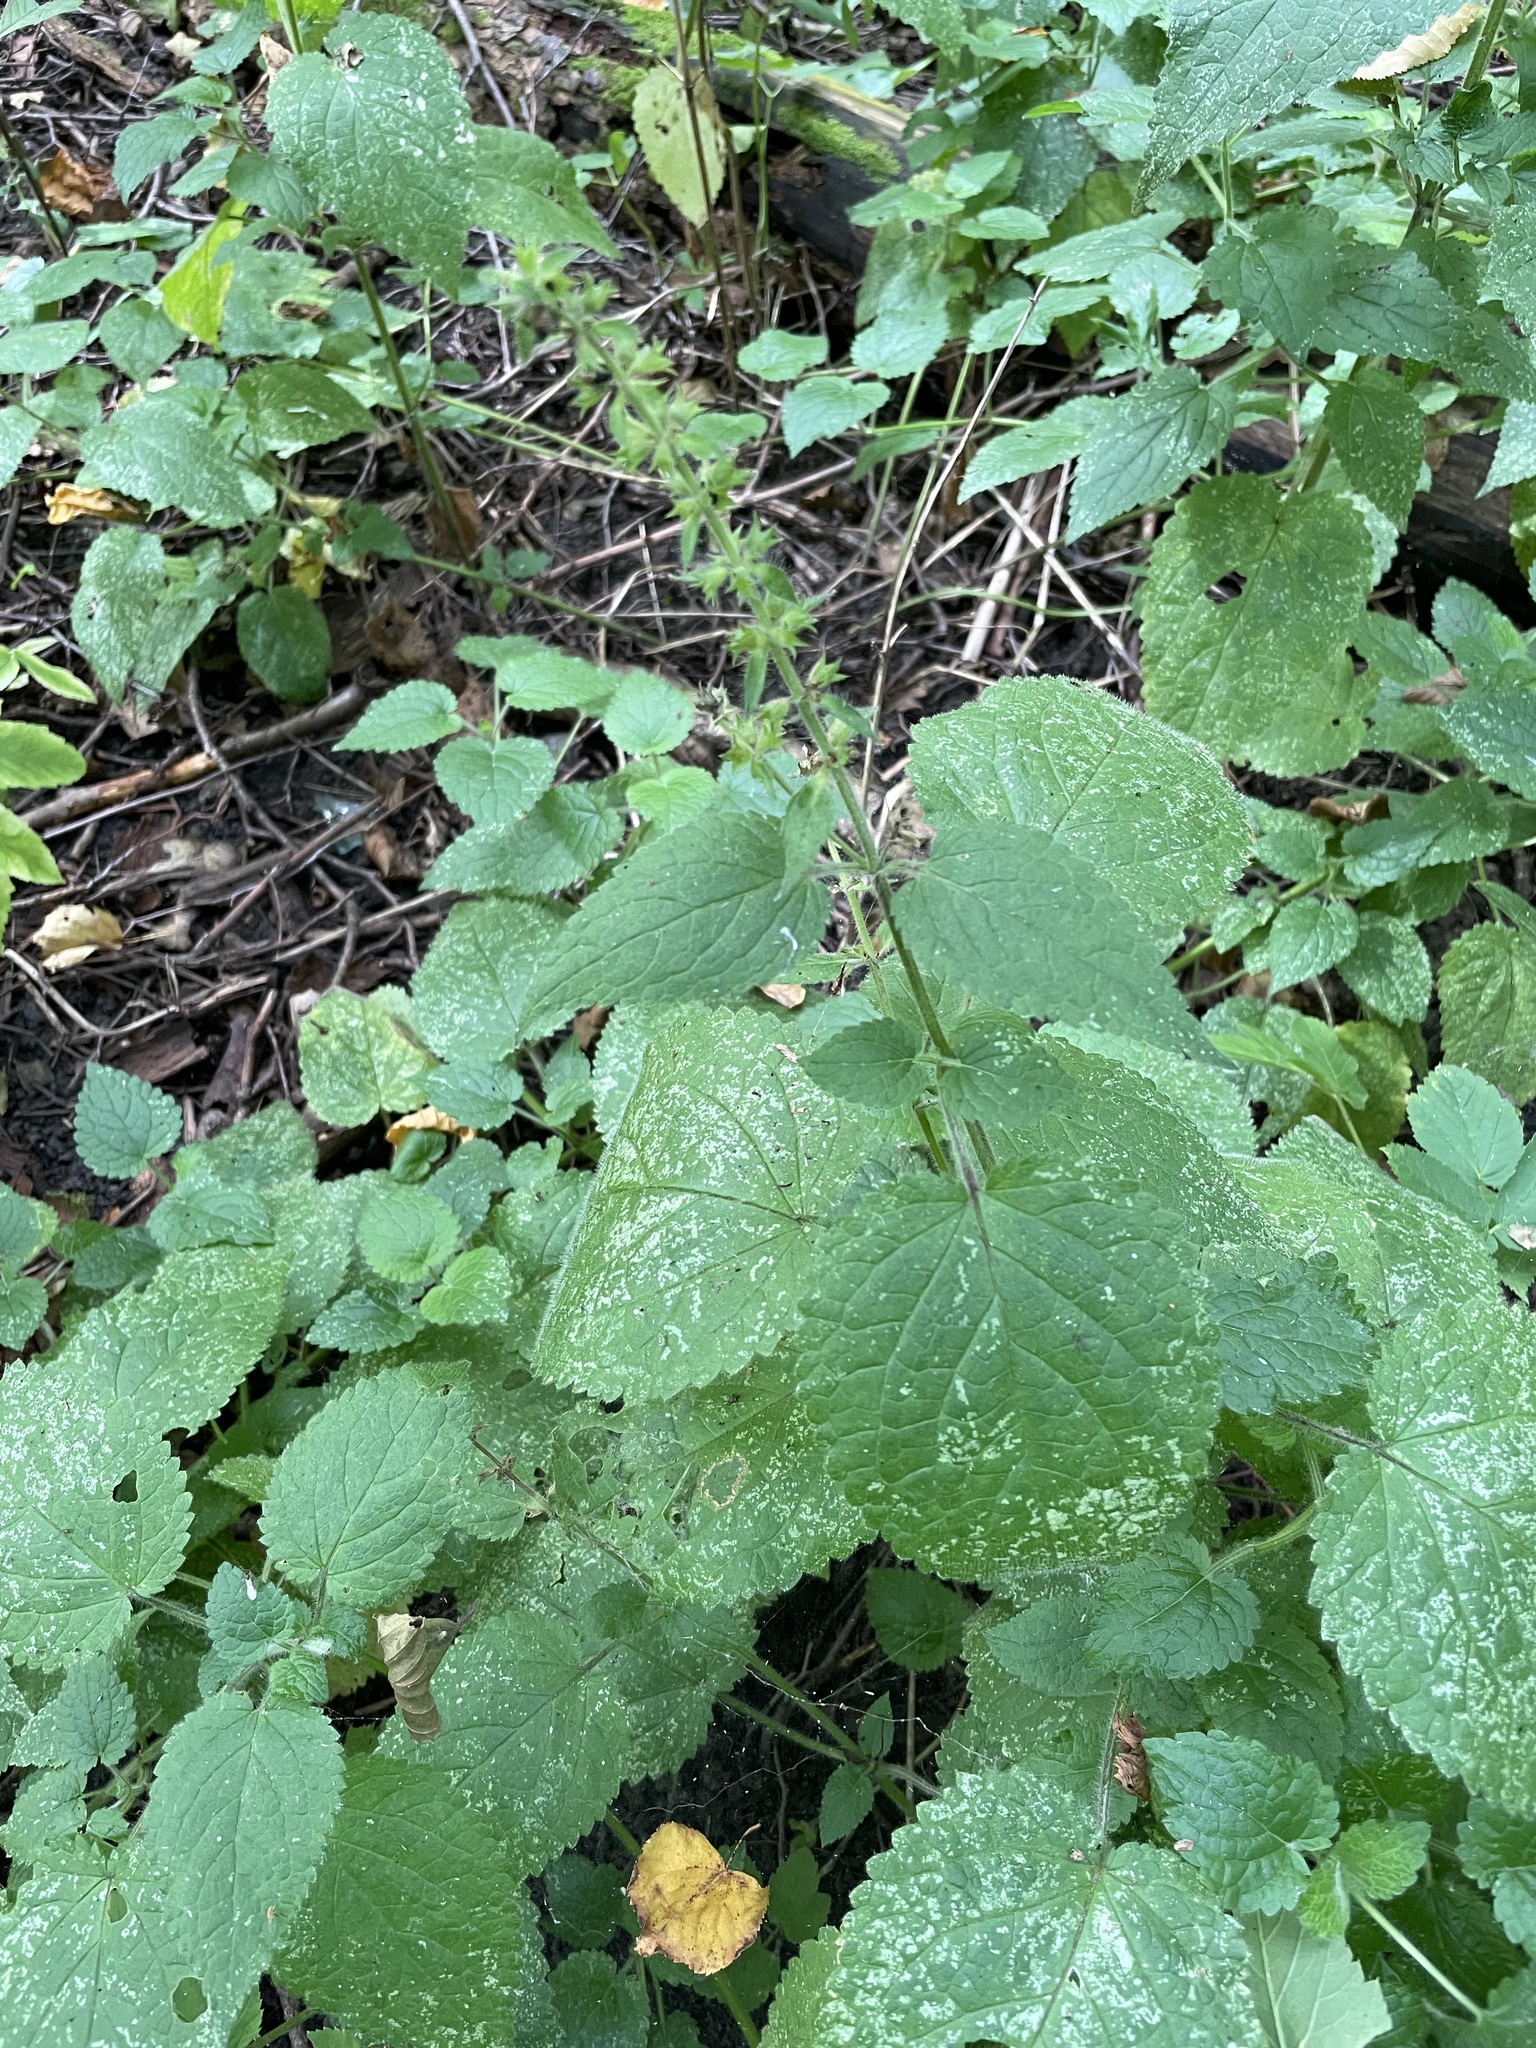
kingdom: Plantae
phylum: Tracheophyta
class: Magnoliopsida
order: Lamiales
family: Lamiaceae
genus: Stachys
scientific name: Stachys sylvatica
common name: Hedge woundwort
